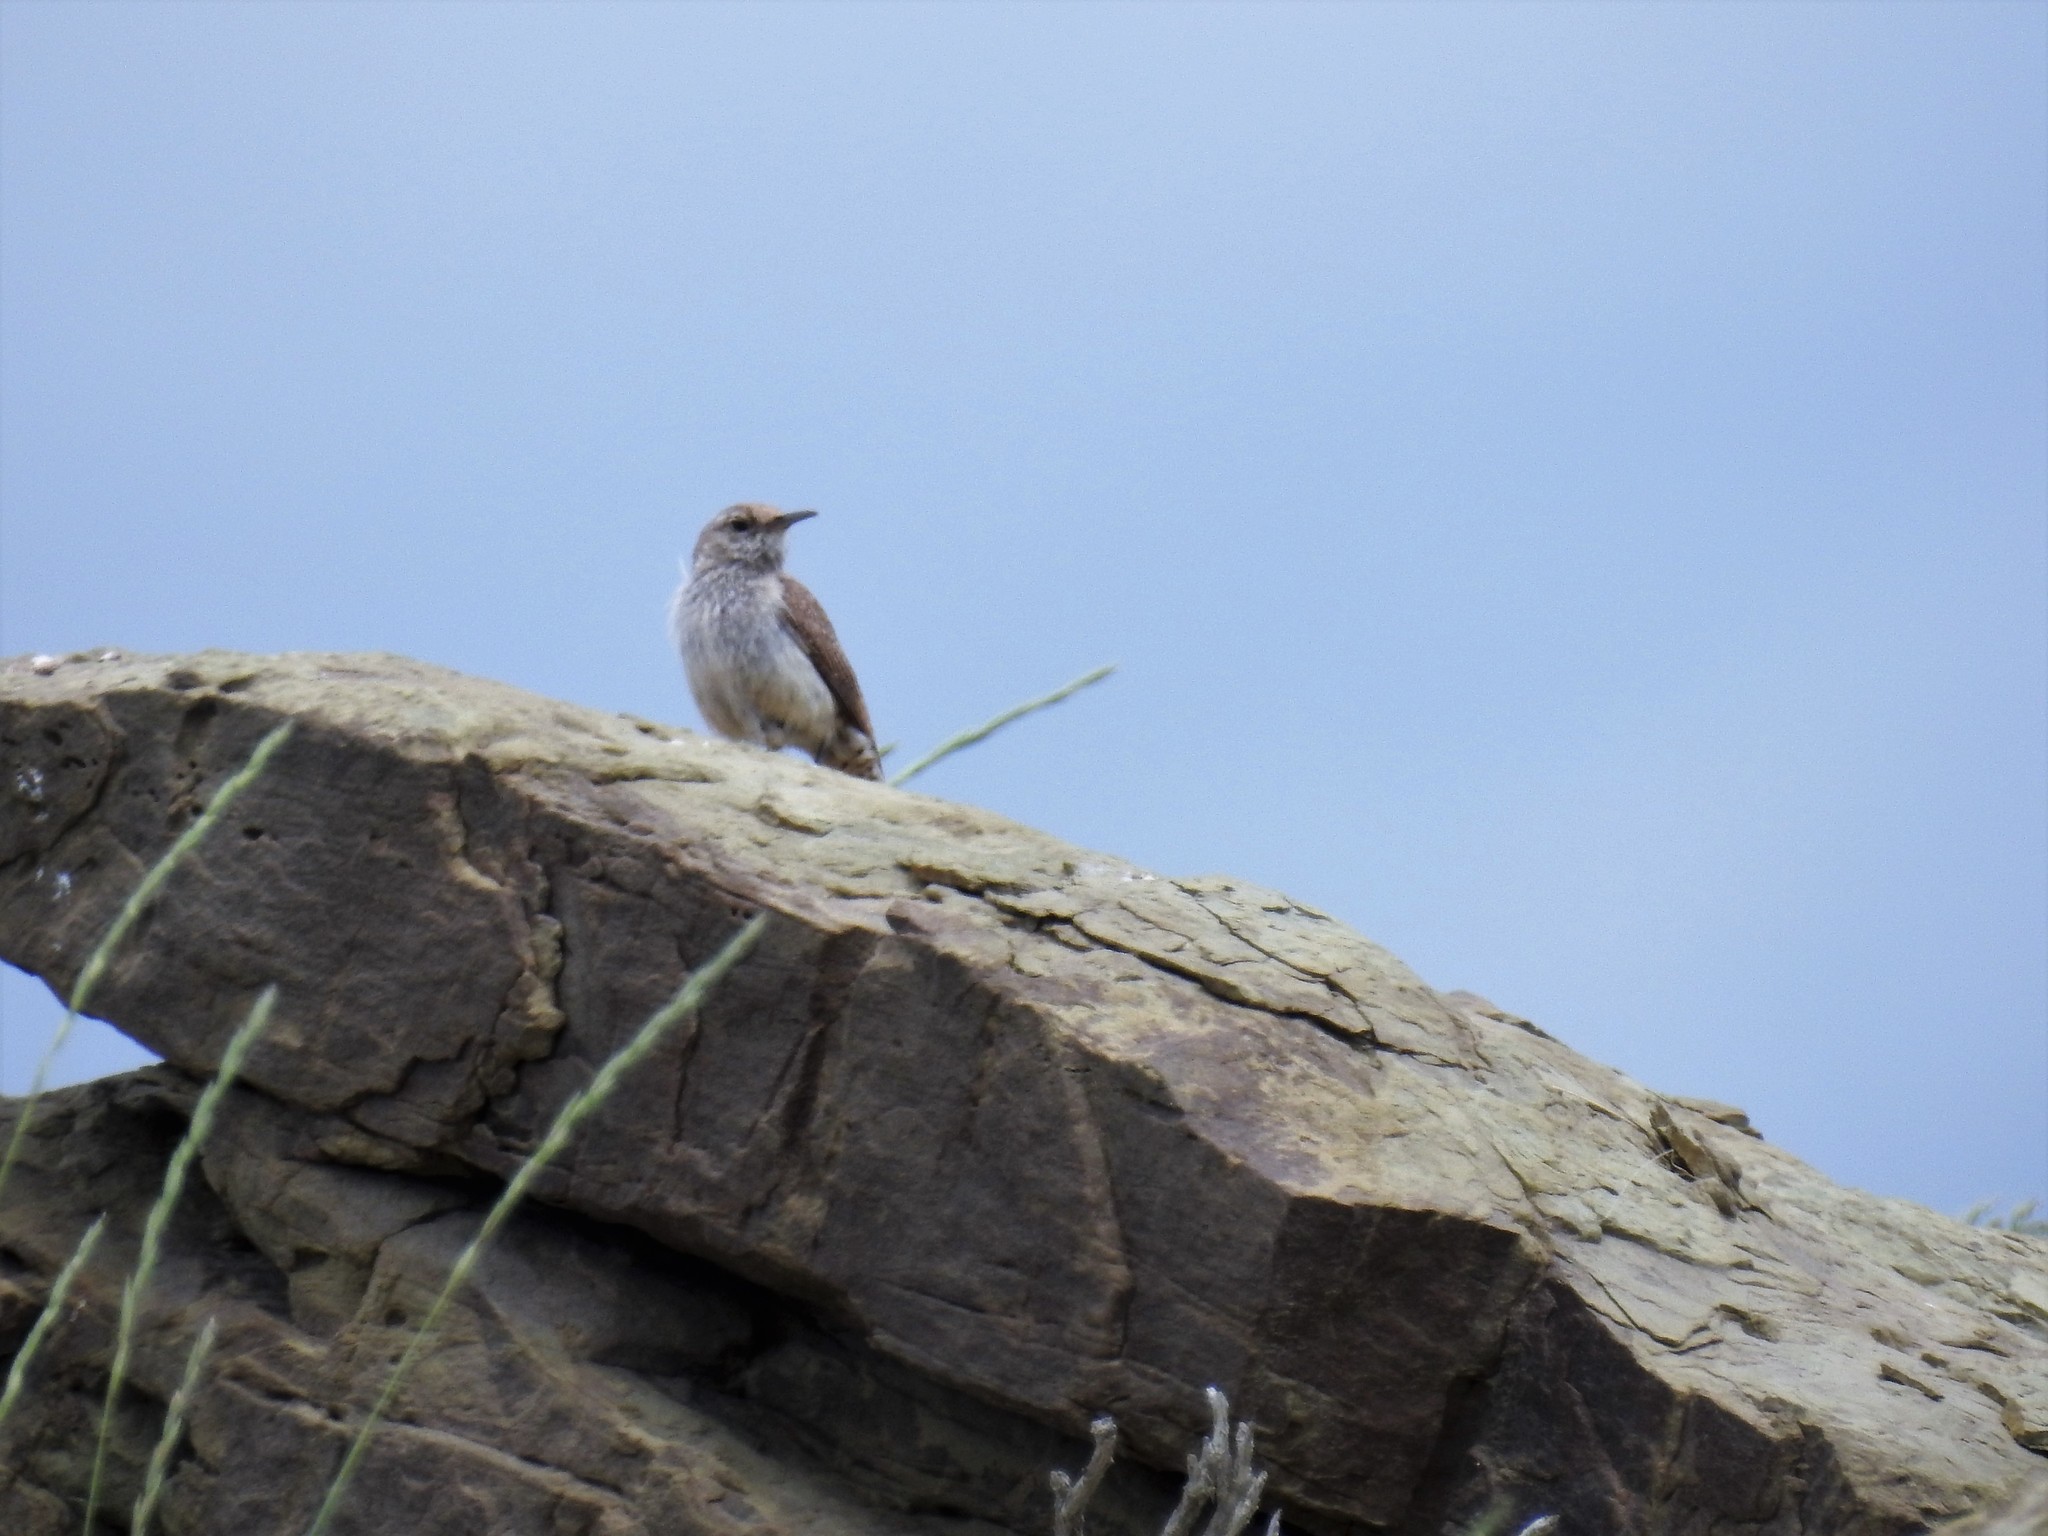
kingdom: Animalia
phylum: Chordata
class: Aves
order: Passeriformes
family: Troglodytidae
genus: Salpinctes
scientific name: Salpinctes obsoletus
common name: Rock wren
